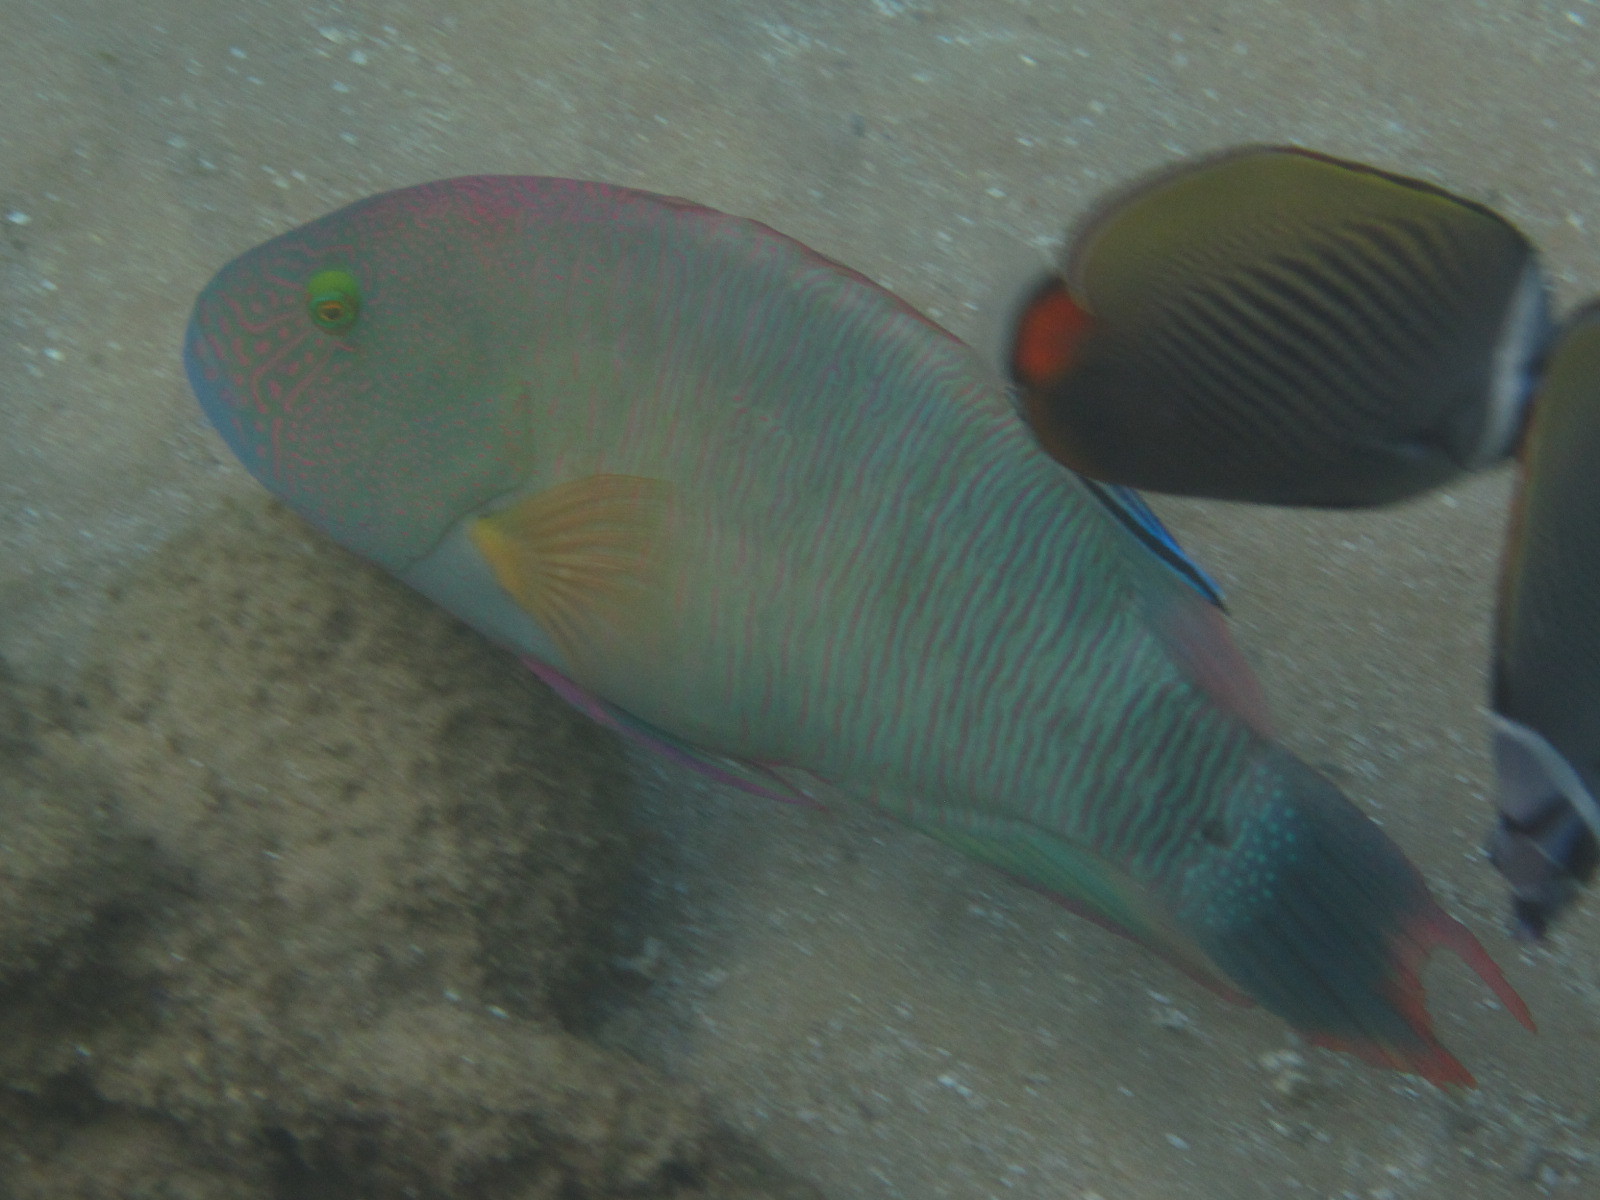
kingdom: Animalia
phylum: Chordata
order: Perciformes
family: Labridae
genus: Cheilinus
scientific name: Cheilinus trilobatus
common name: Tripletail maori wrasse
